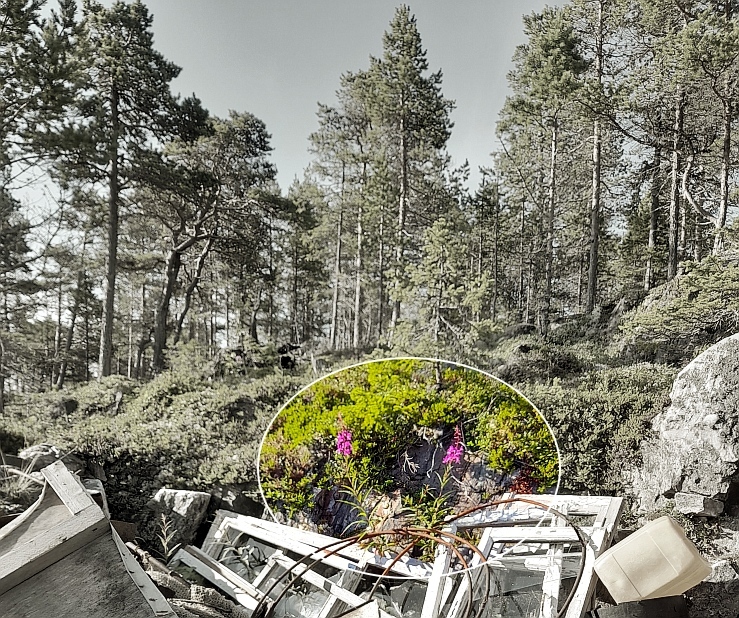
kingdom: Plantae
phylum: Tracheophyta
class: Magnoliopsida
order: Myrtales
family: Onagraceae
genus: Chamaenerion
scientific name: Chamaenerion angustifolium
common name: Fireweed
